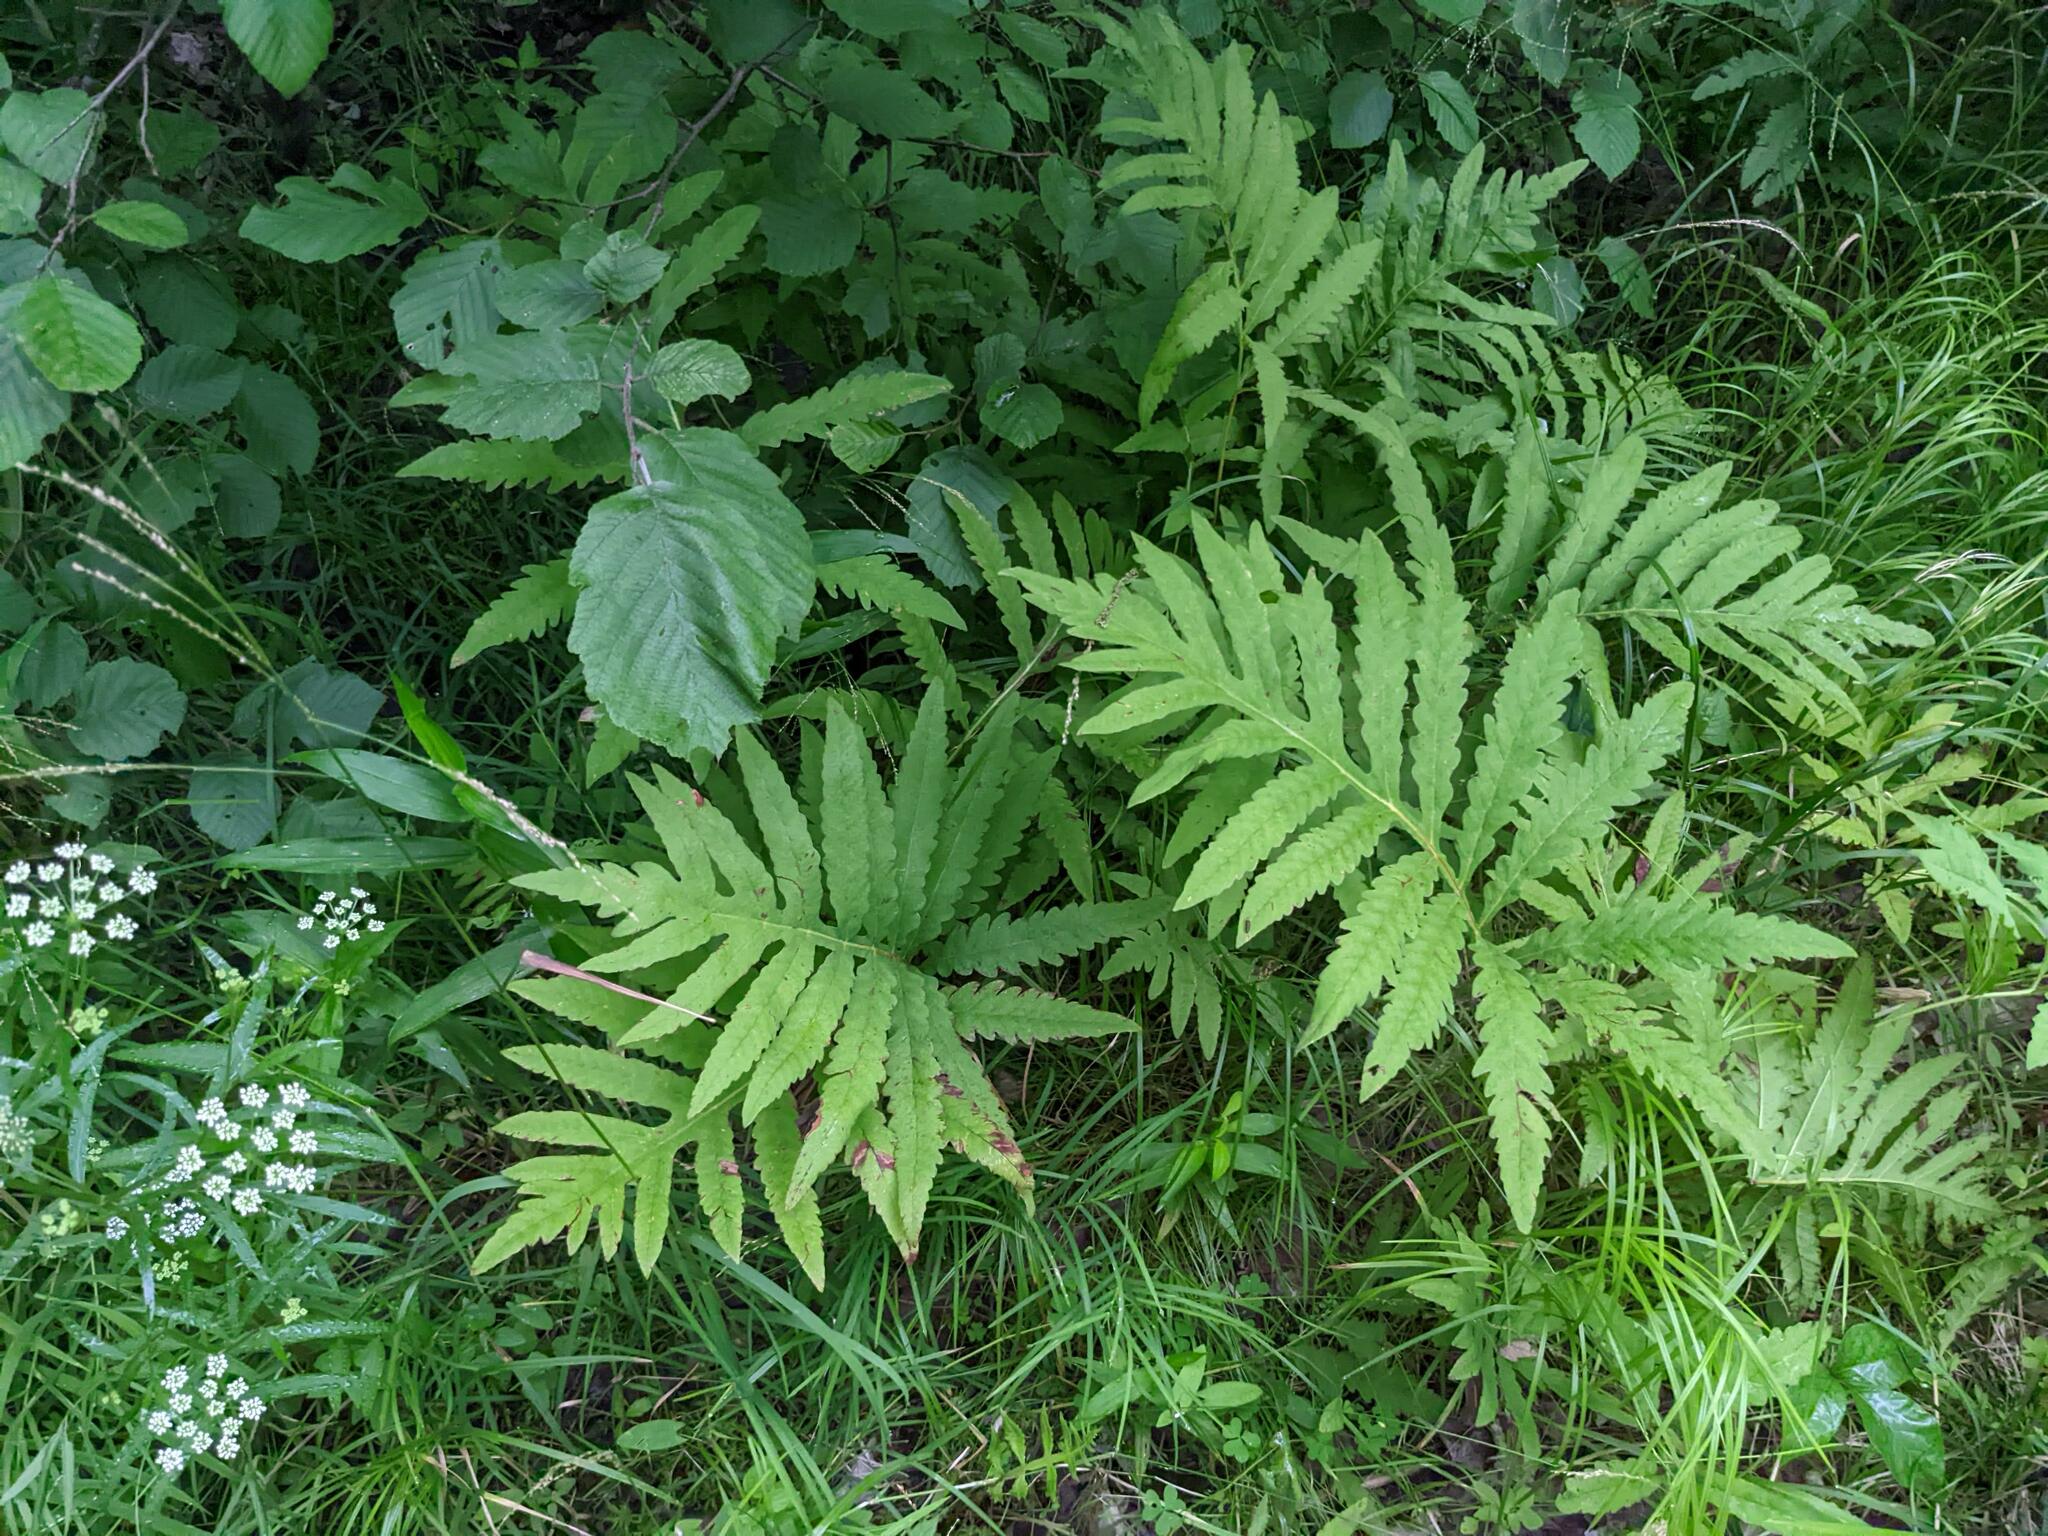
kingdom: Plantae
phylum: Tracheophyta
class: Polypodiopsida
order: Polypodiales
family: Onocleaceae
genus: Onoclea
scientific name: Onoclea sensibilis
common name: Sensitive fern
